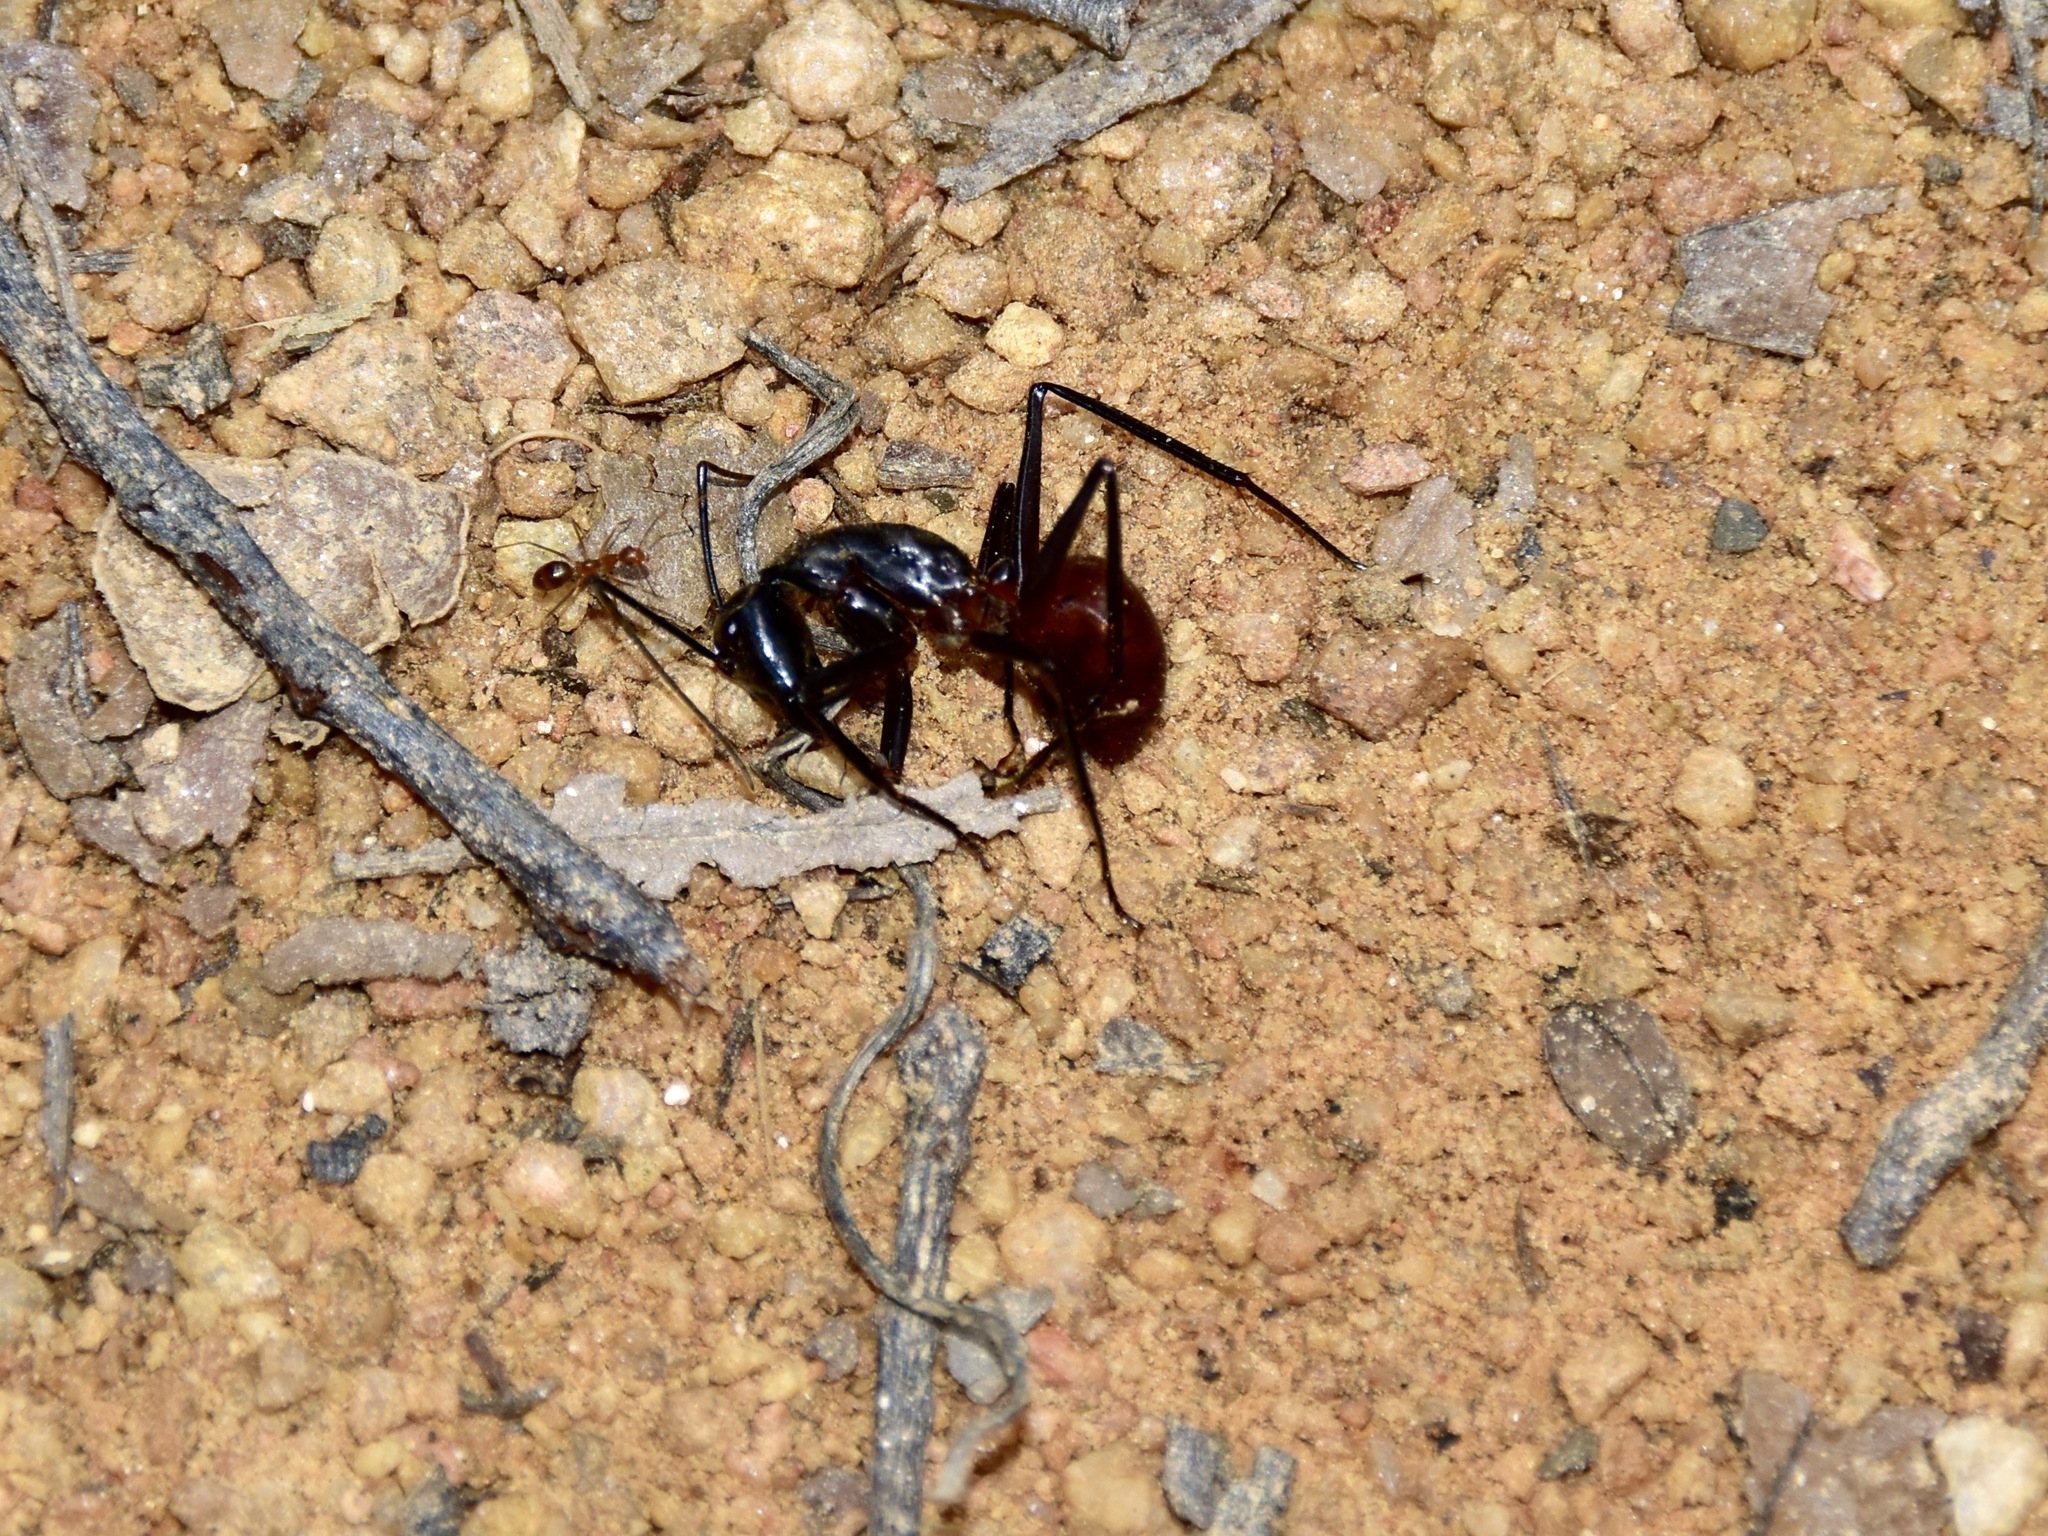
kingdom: Animalia
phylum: Arthropoda
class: Insecta
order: Hymenoptera
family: Formicidae
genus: Dinomyrmex
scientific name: Dinomyrmex
